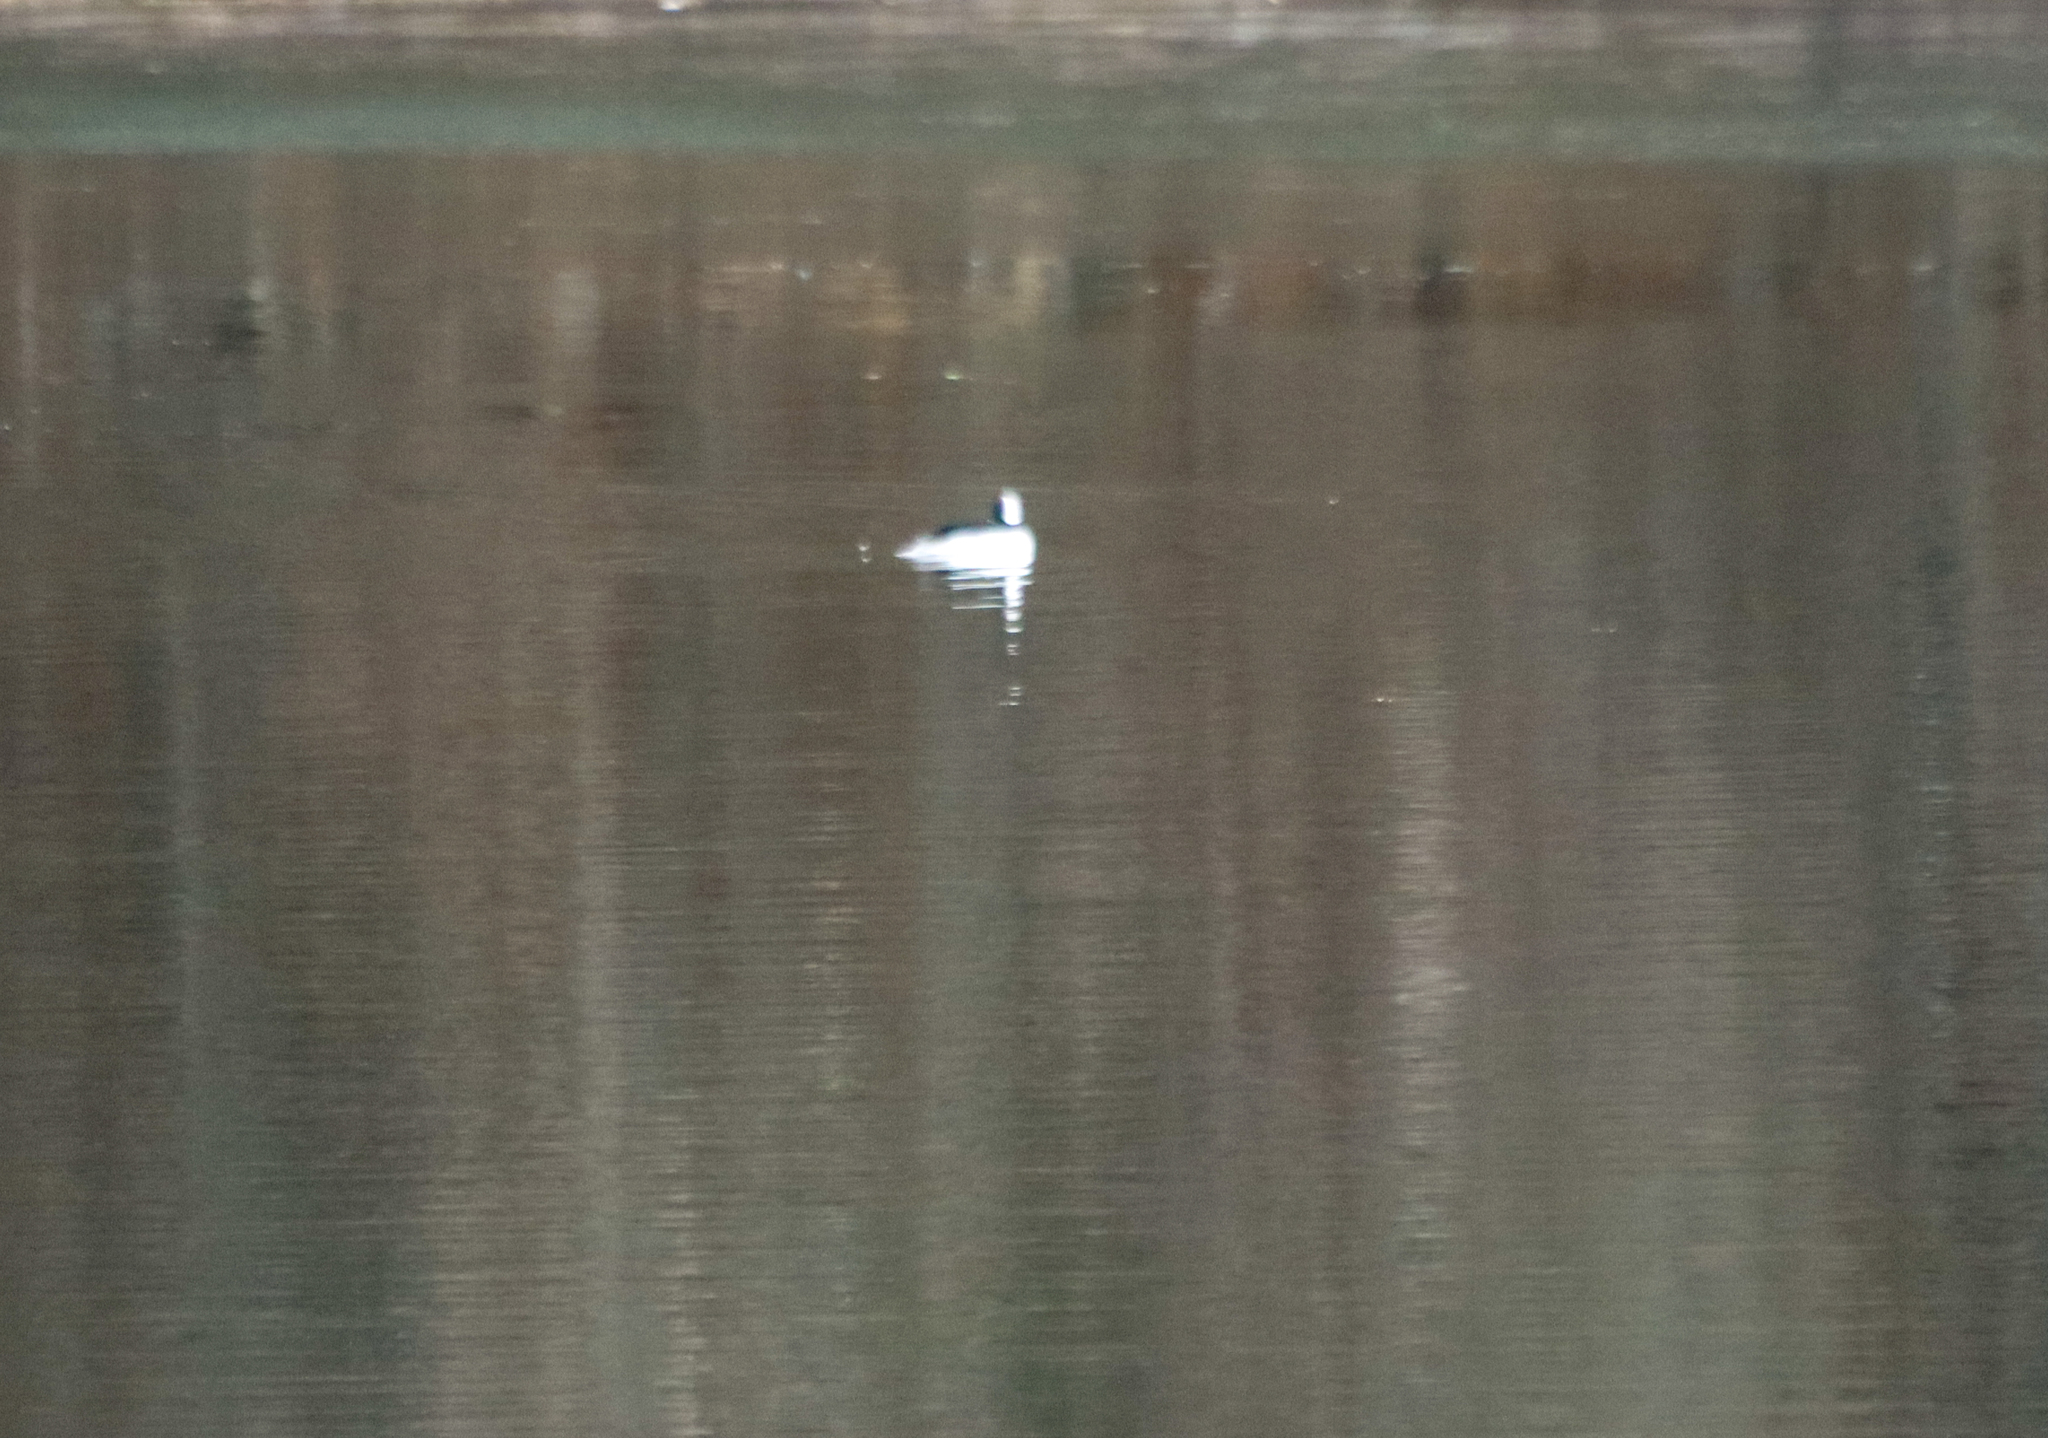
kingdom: Animalia
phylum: Chordata
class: Aves
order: Anseriformes
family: Anatidae
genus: Bucephala
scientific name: Bucephala albeola
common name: Bufflehead
